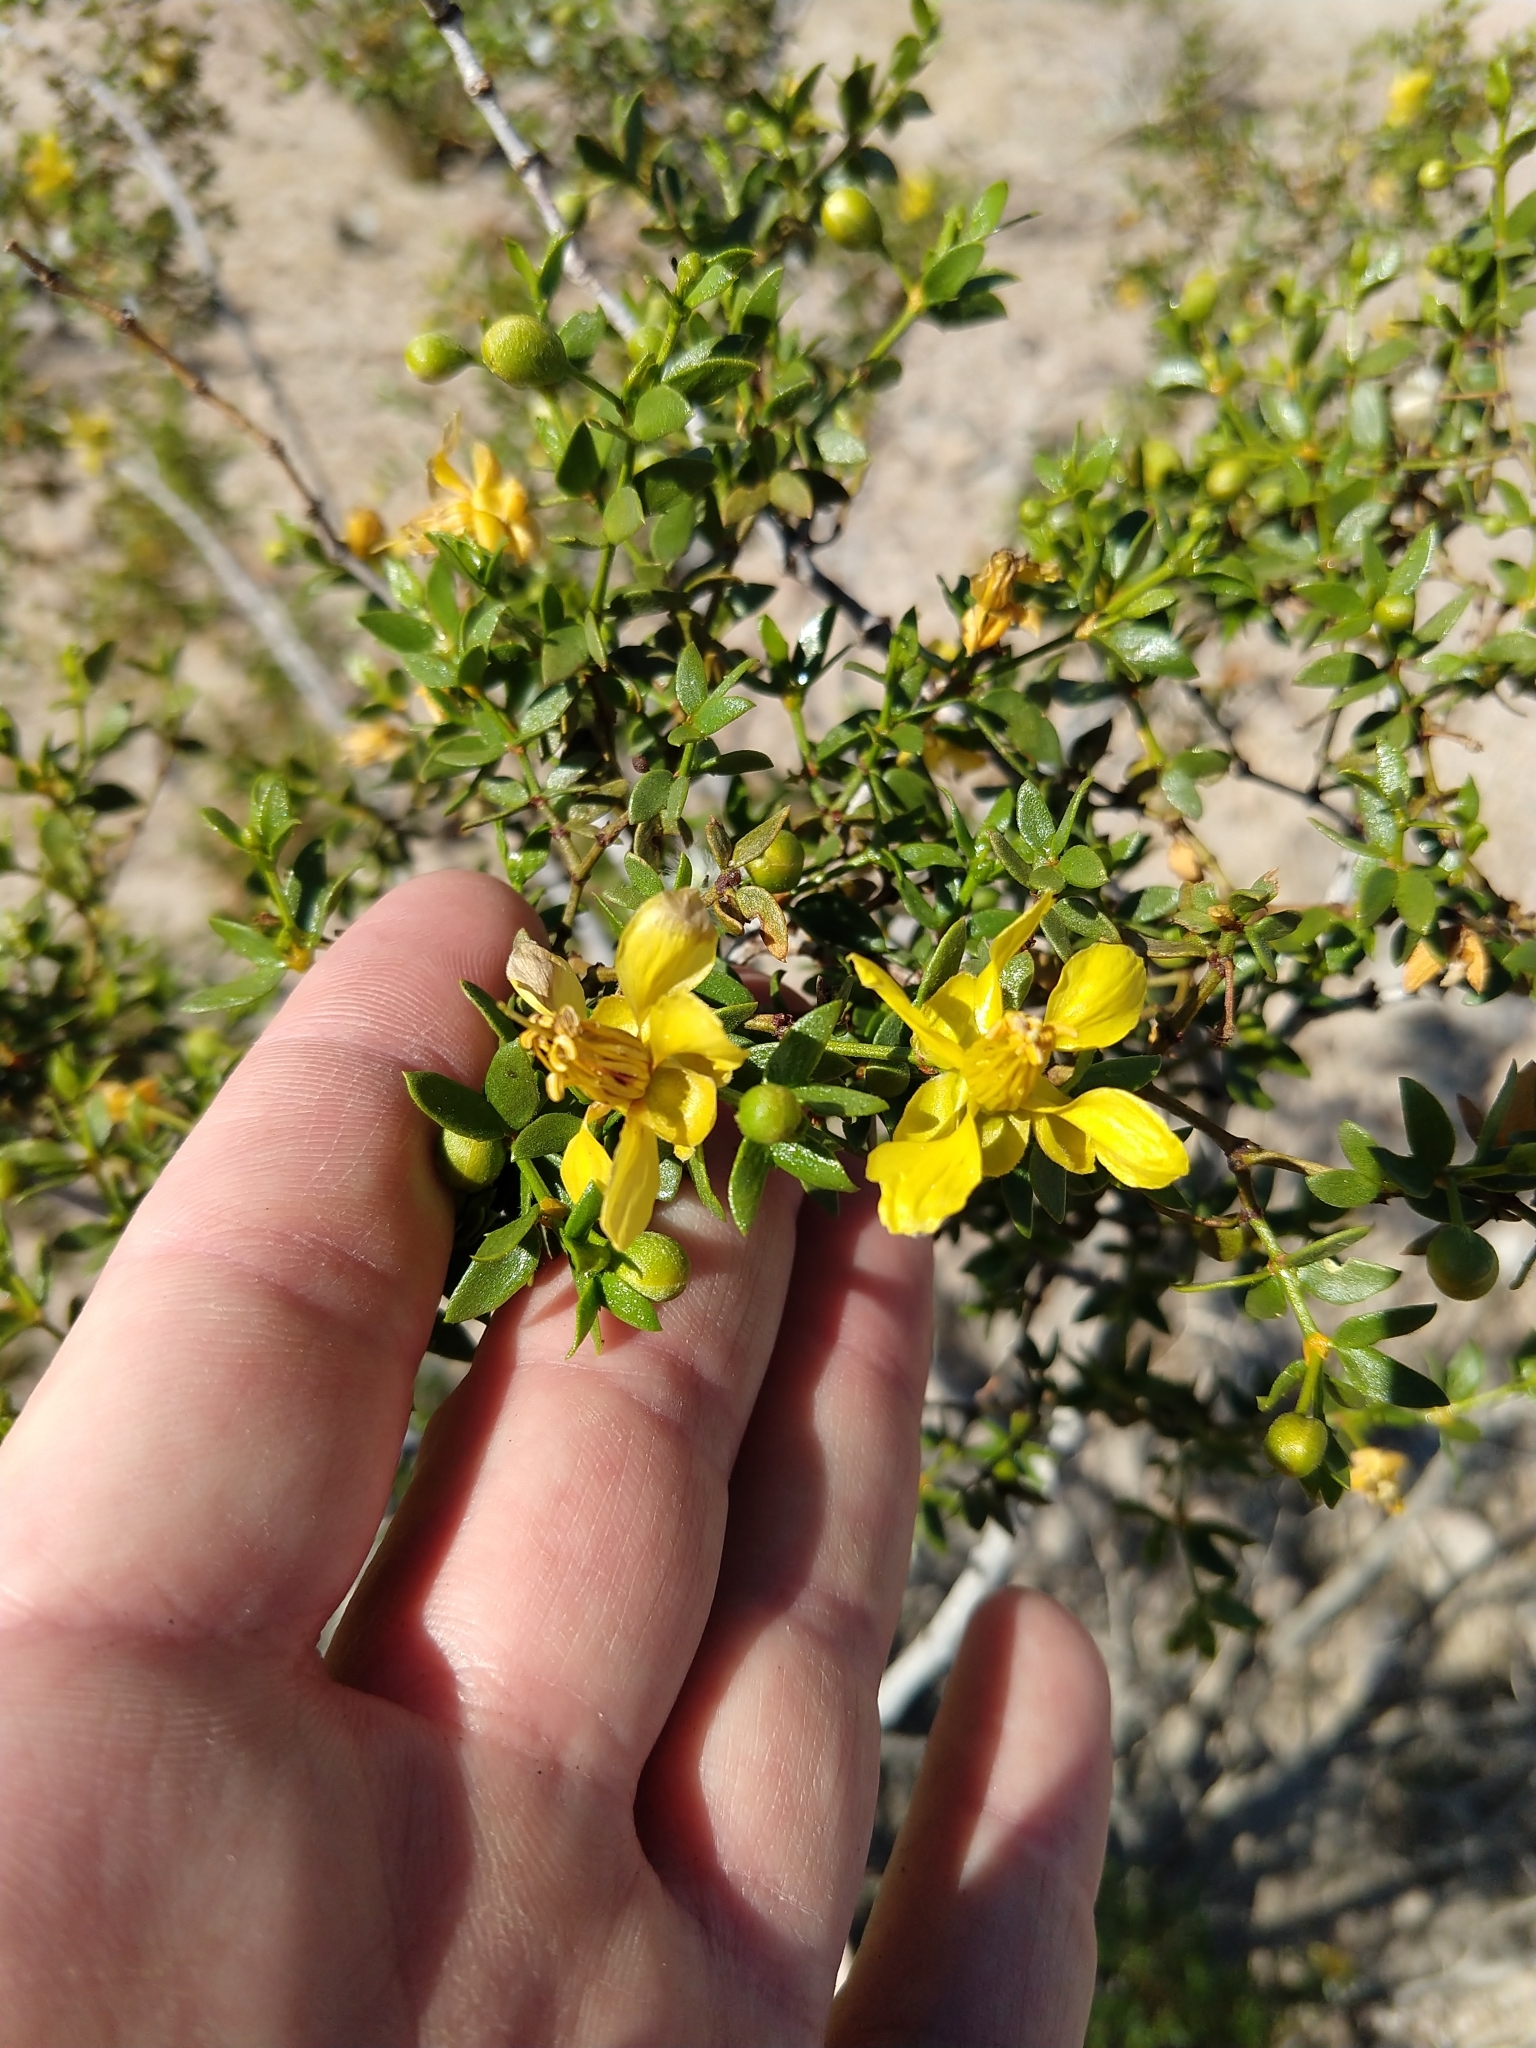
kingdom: Plantae
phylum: Tracheophyta
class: Magnoliopsida
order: Zygophyllales
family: Zygophyllaceae
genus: Larrea
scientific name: Larrea tridentata
